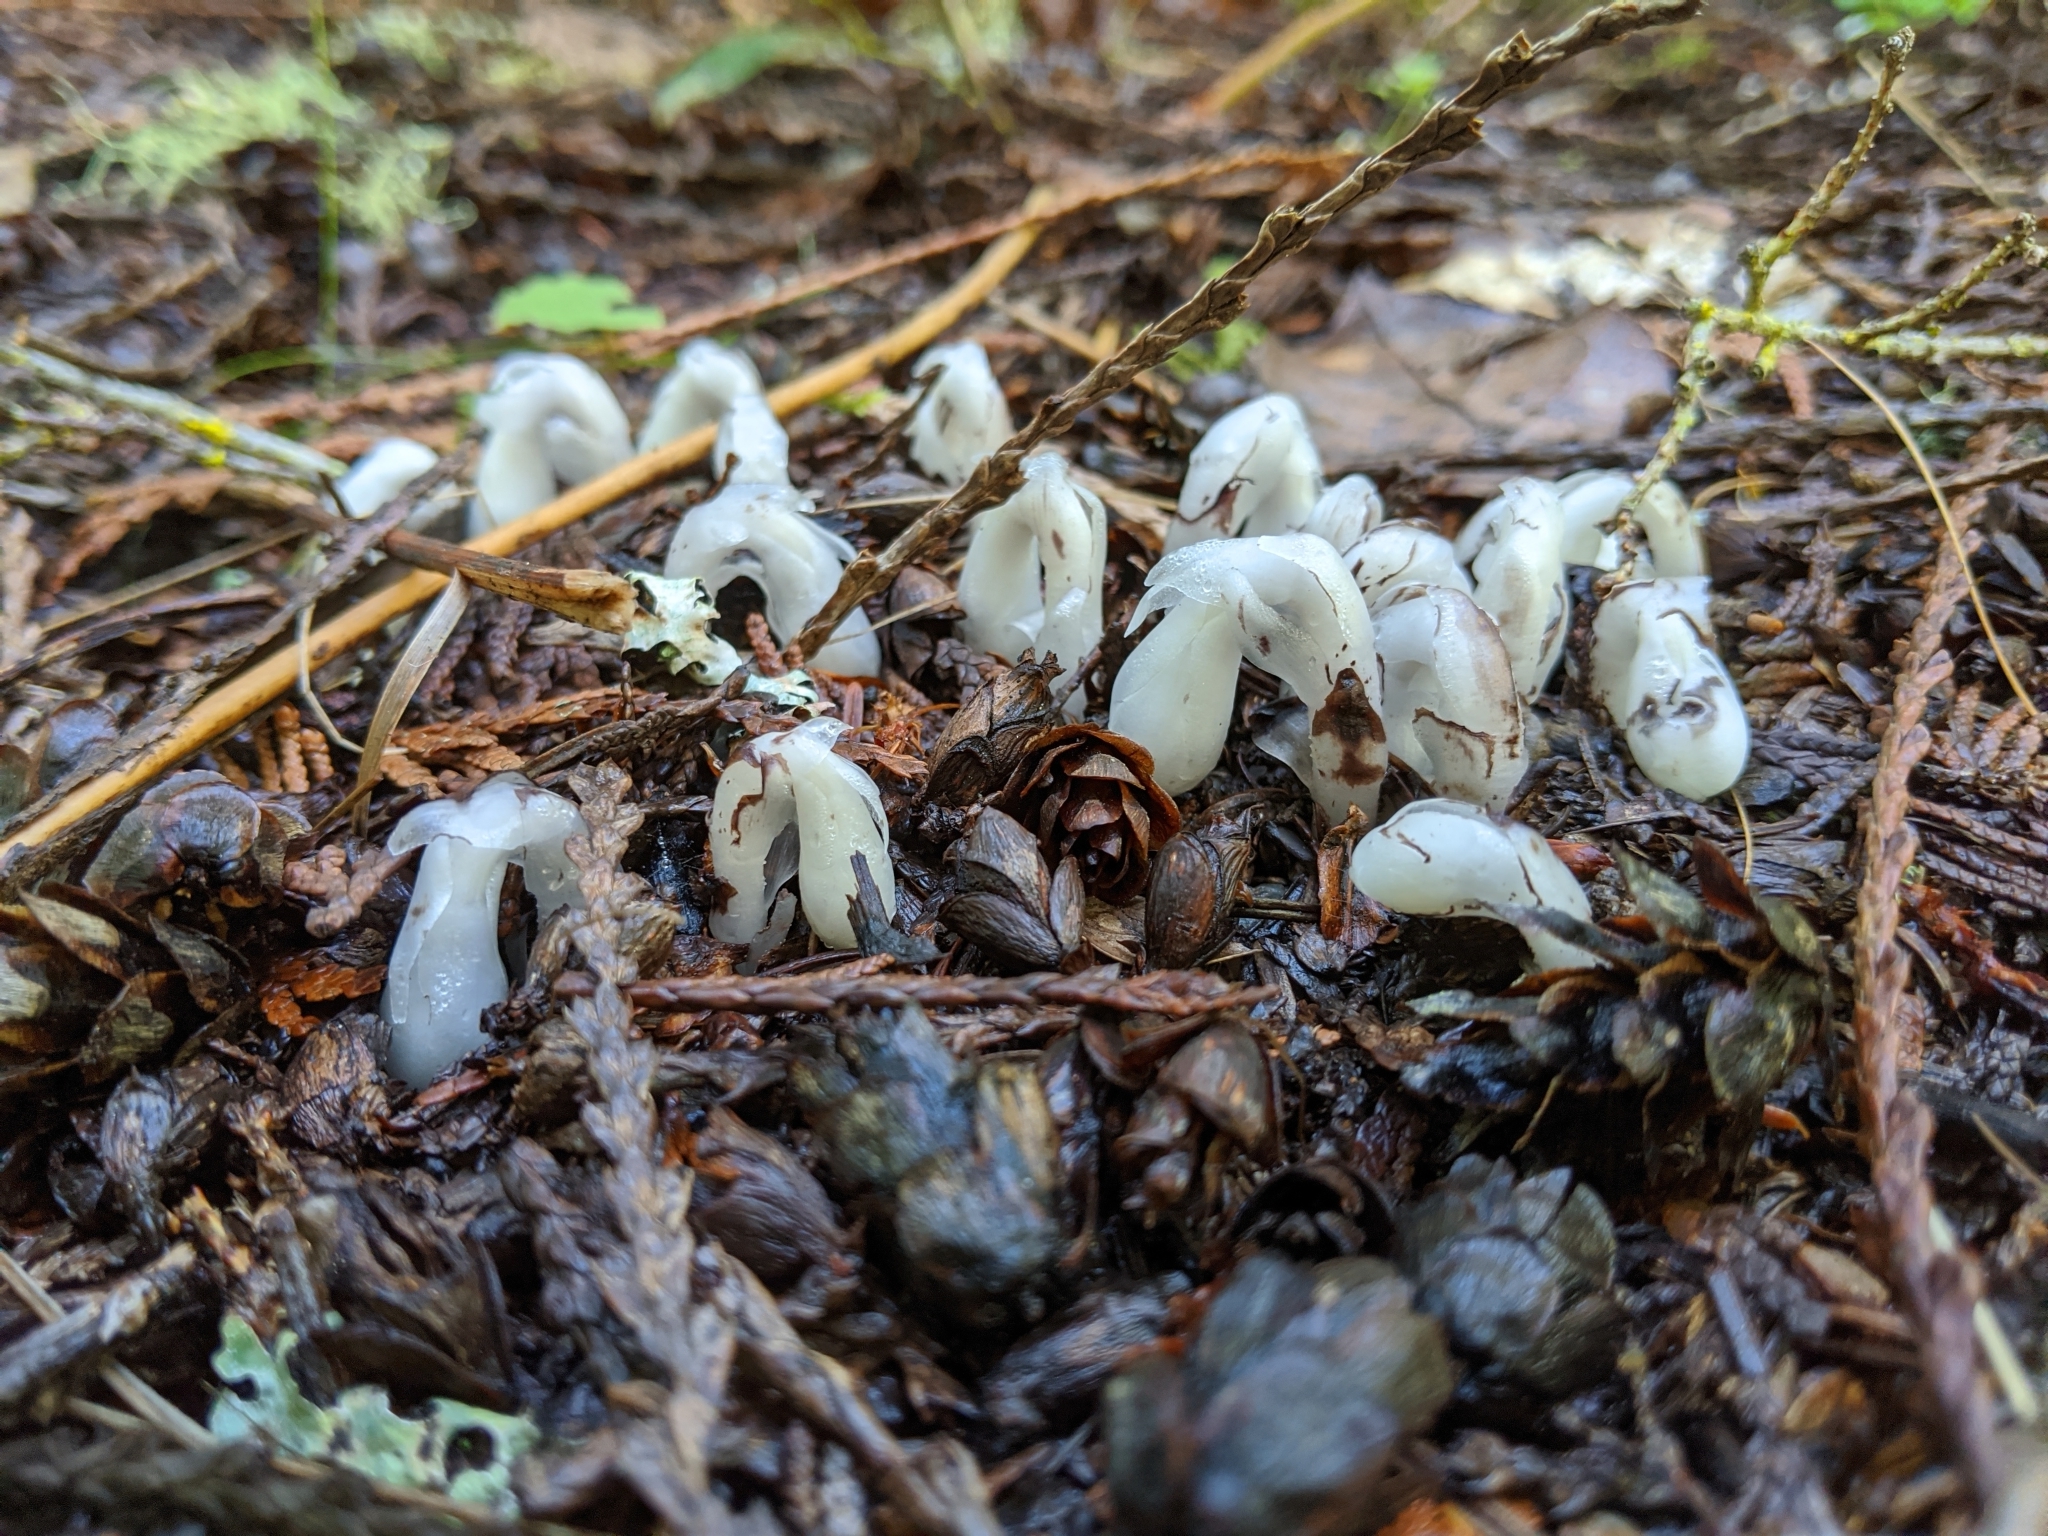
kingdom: Plantae
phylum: Tracheophyta
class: Magnoliopsida
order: Ericales
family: Ericaceae
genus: Monotropa
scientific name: Monotropa uniflora
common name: Convulsion root
